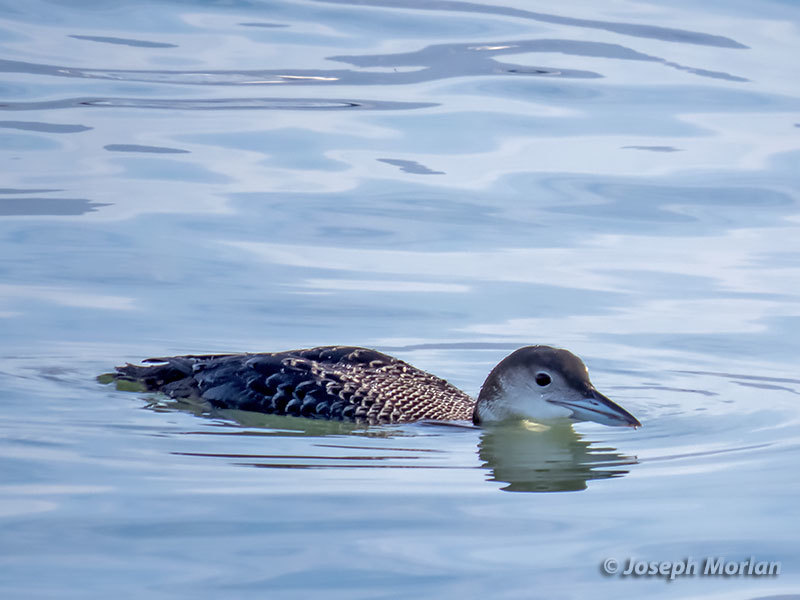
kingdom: Animalia
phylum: Chordata
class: Aves
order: Gaviiformes
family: Gaviidae
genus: Gavia
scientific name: Gavia immer
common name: Common loon
